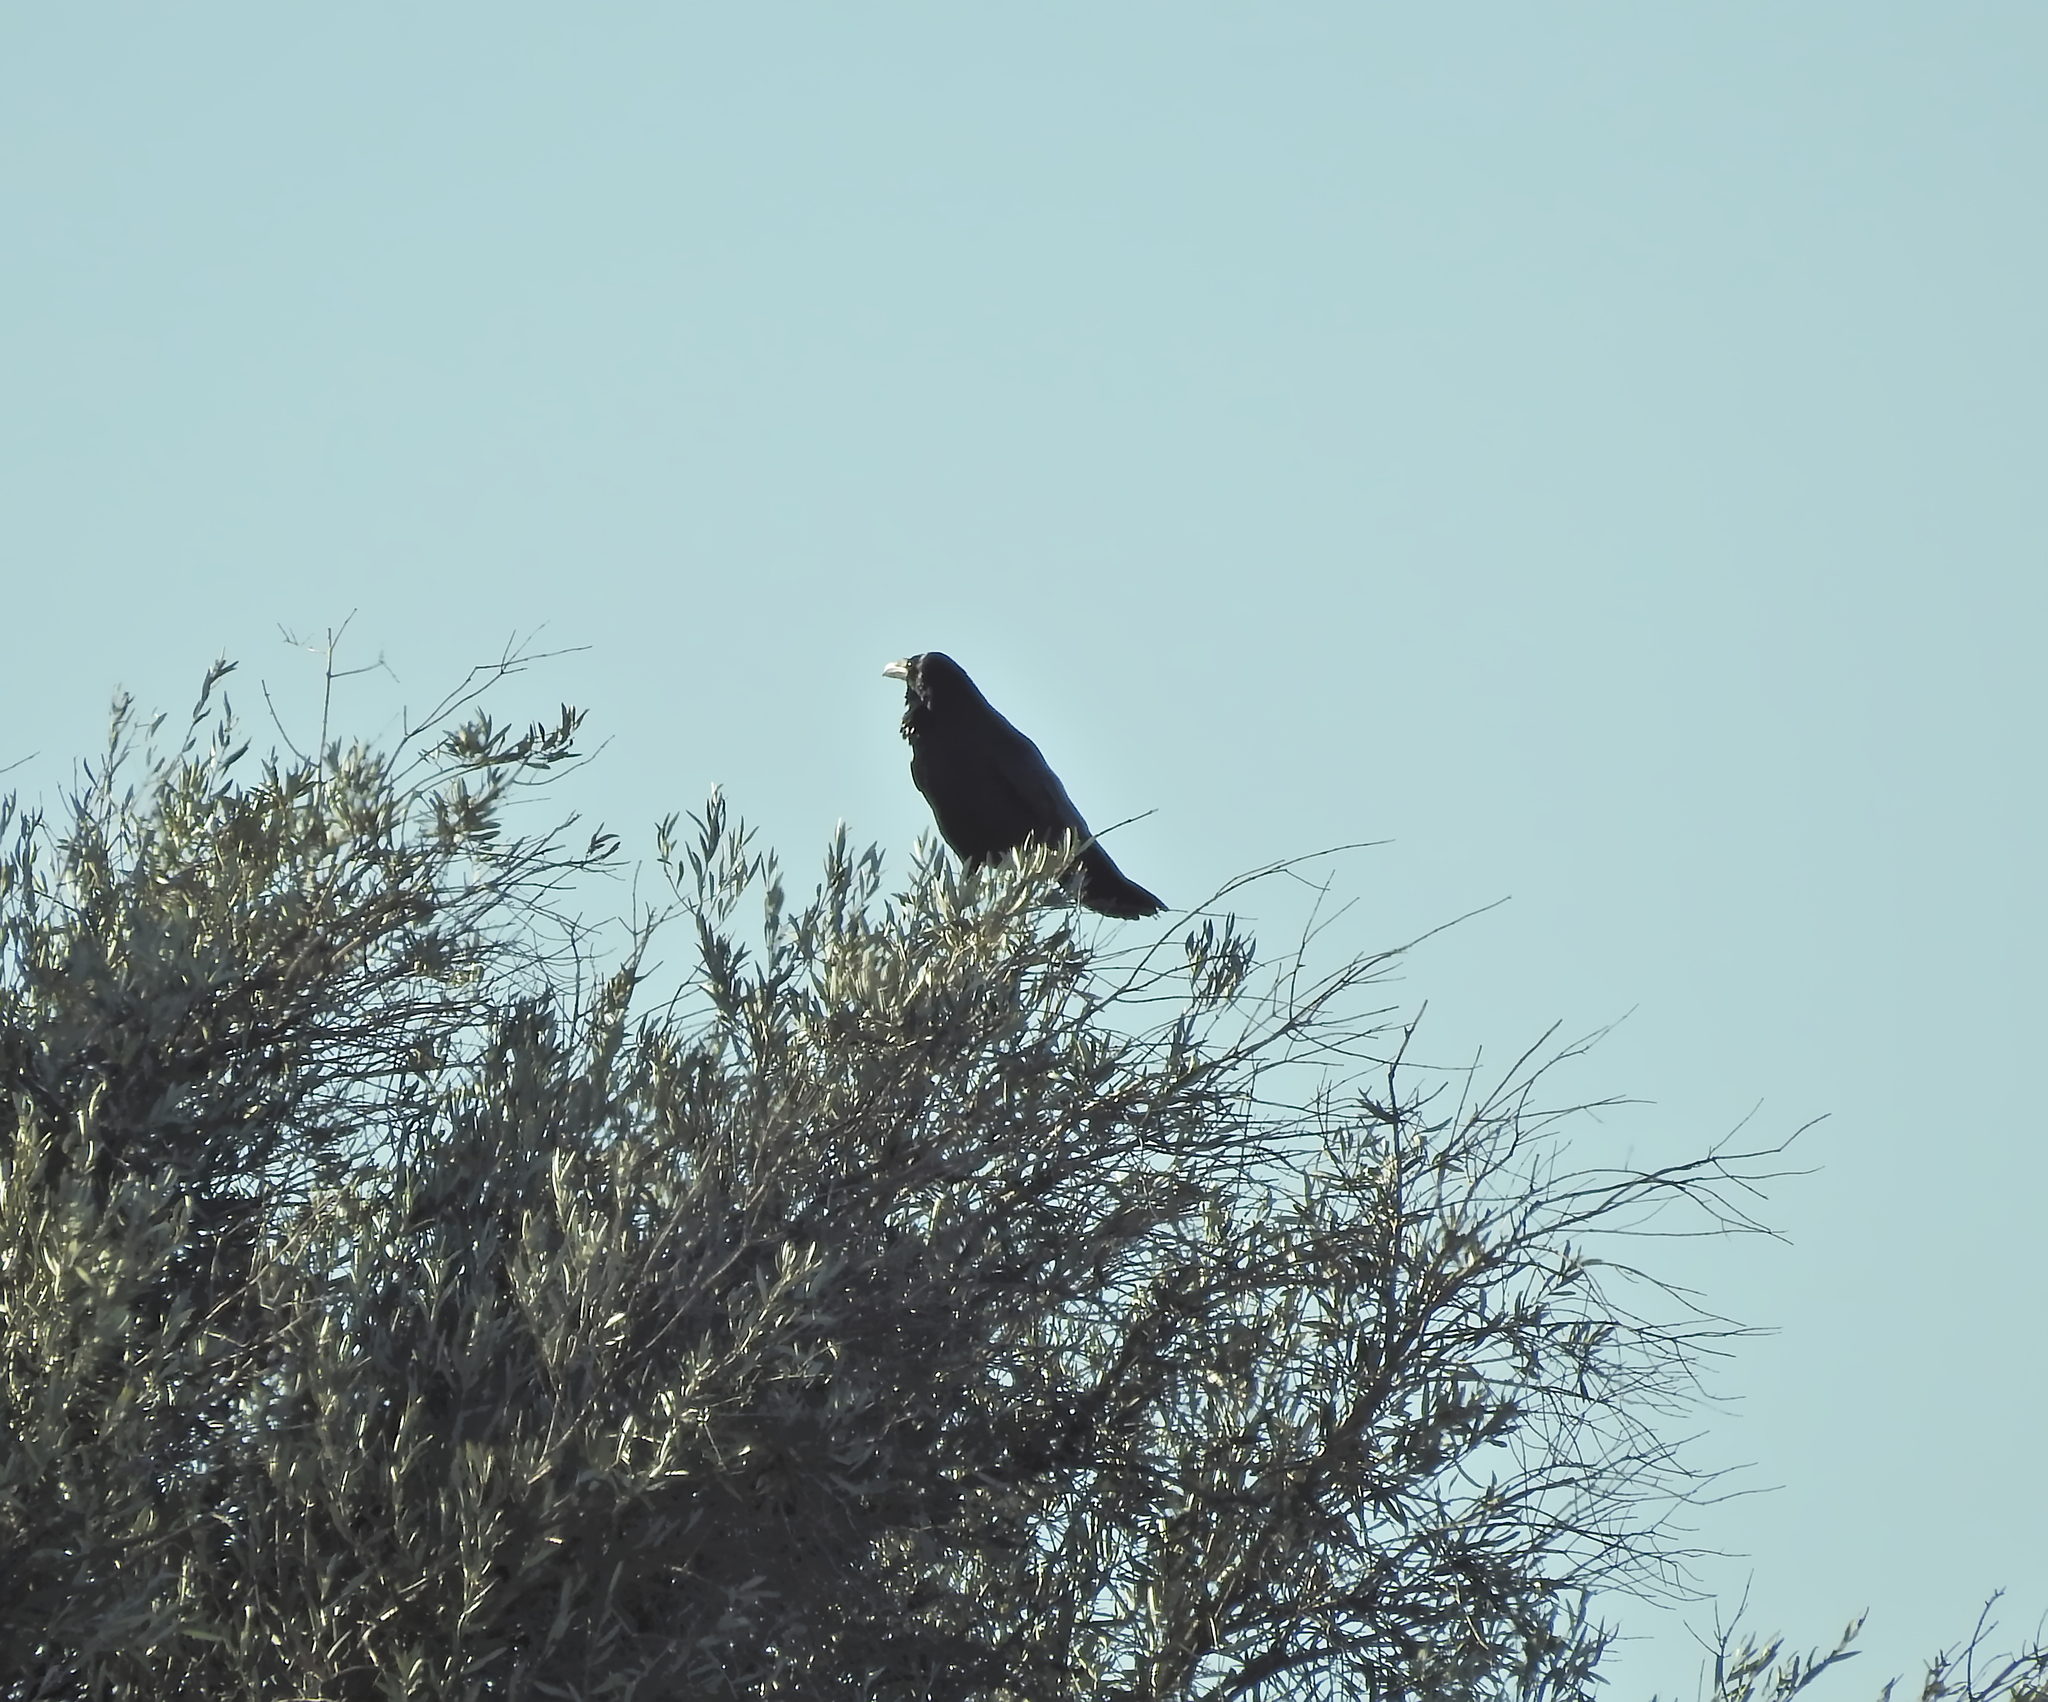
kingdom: Animalia
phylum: Chordata
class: Aves
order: Passeriformes
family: Corvidae
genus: Corvus
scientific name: Corvus corax
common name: Common raven
